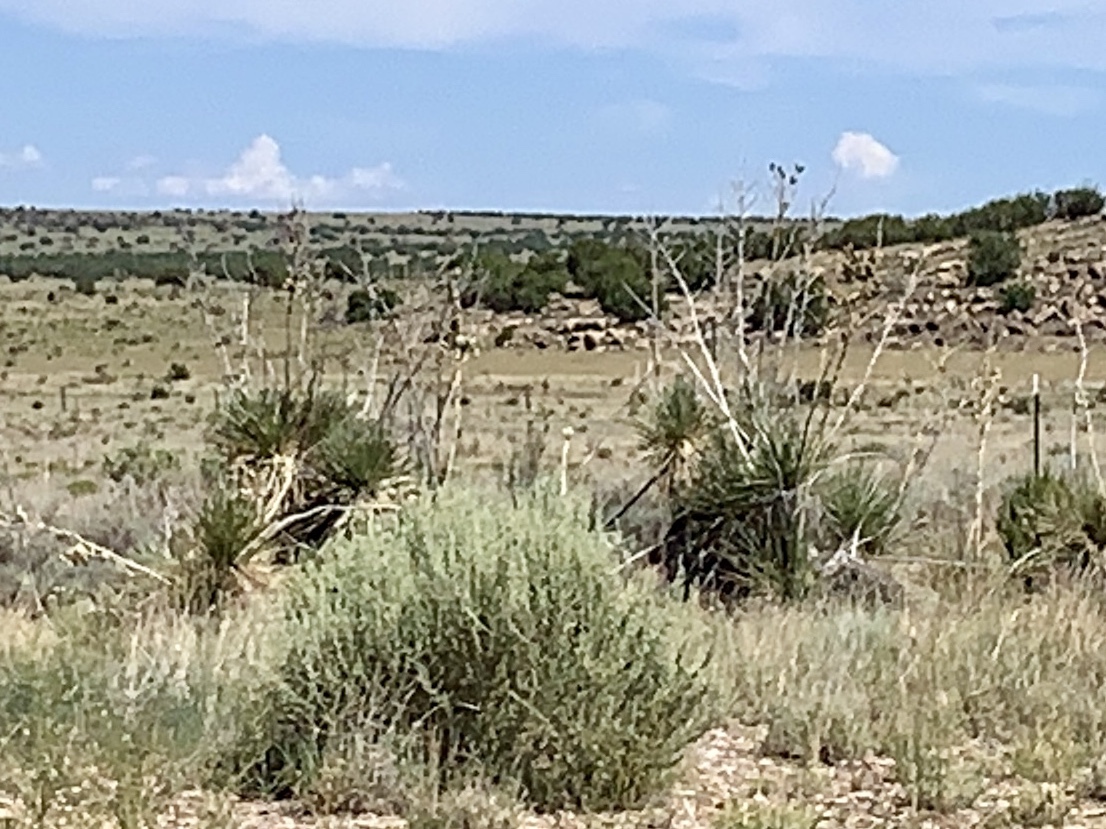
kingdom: Plantae
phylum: Tracheophyta
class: Liliopsida
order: Asparagales
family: Asparagaceae
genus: Yucca
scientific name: Yucca elata
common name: Palmella
